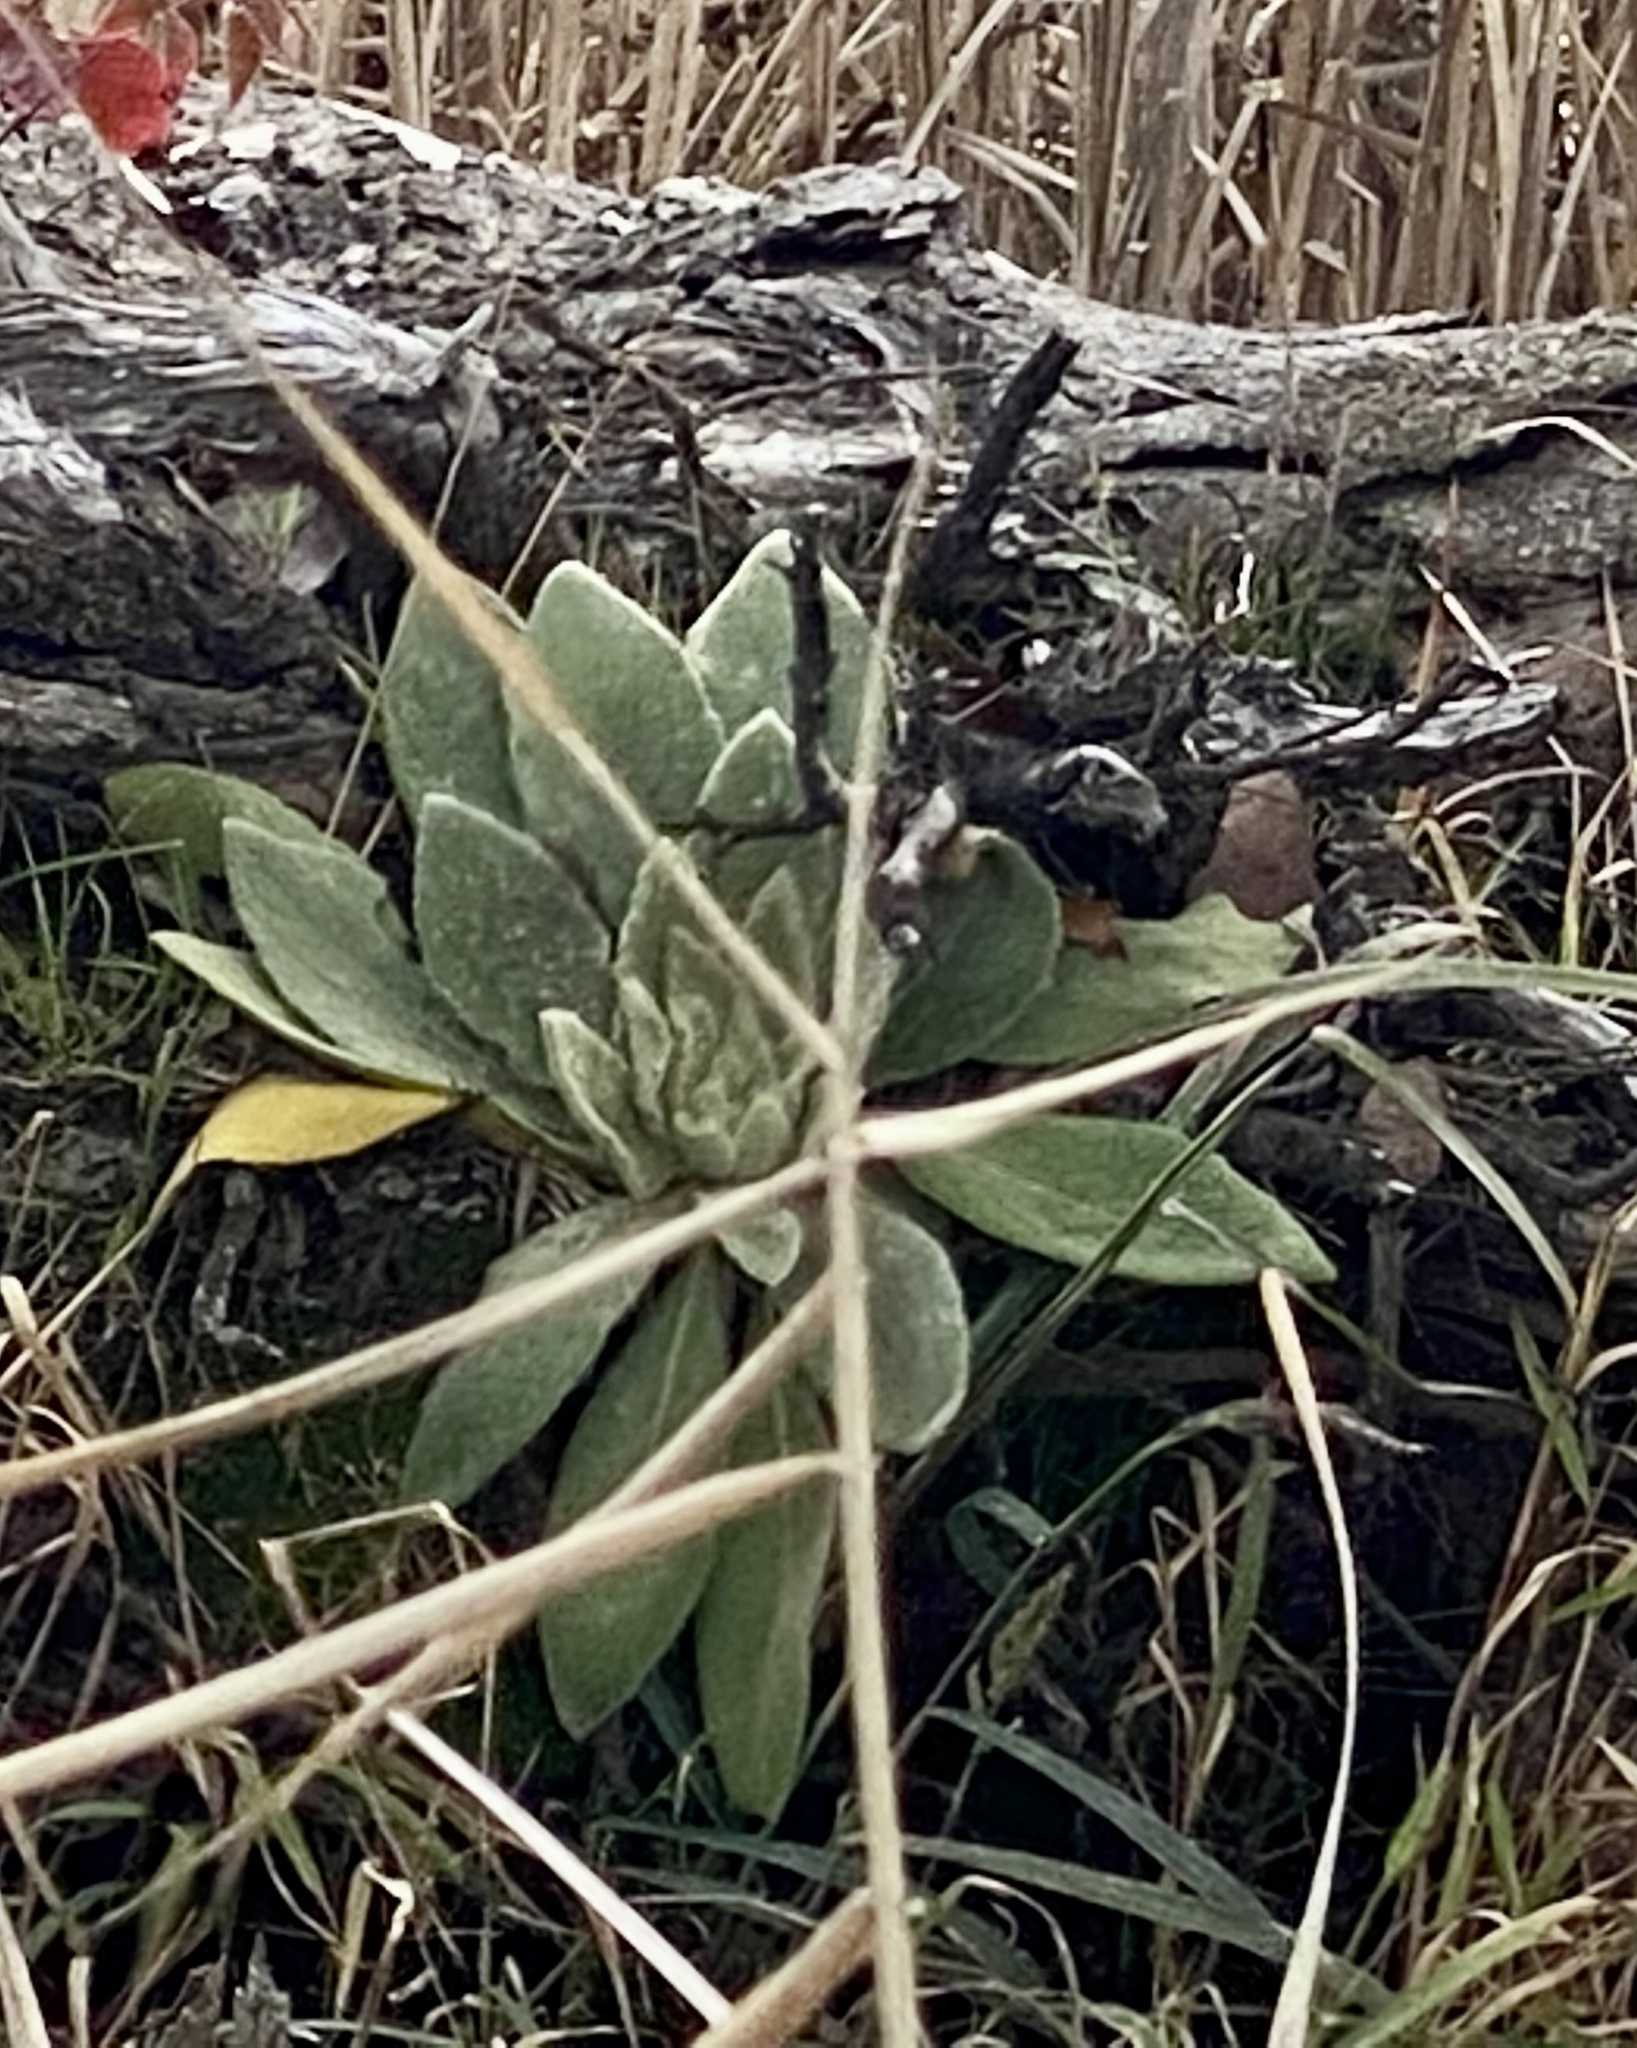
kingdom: Plantae
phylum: Tracheophyta
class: Magnoliopsida
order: Lamiales
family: Scrophulariaceae
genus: Verbascum
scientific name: Verbascum thapsus
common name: Common mullein
